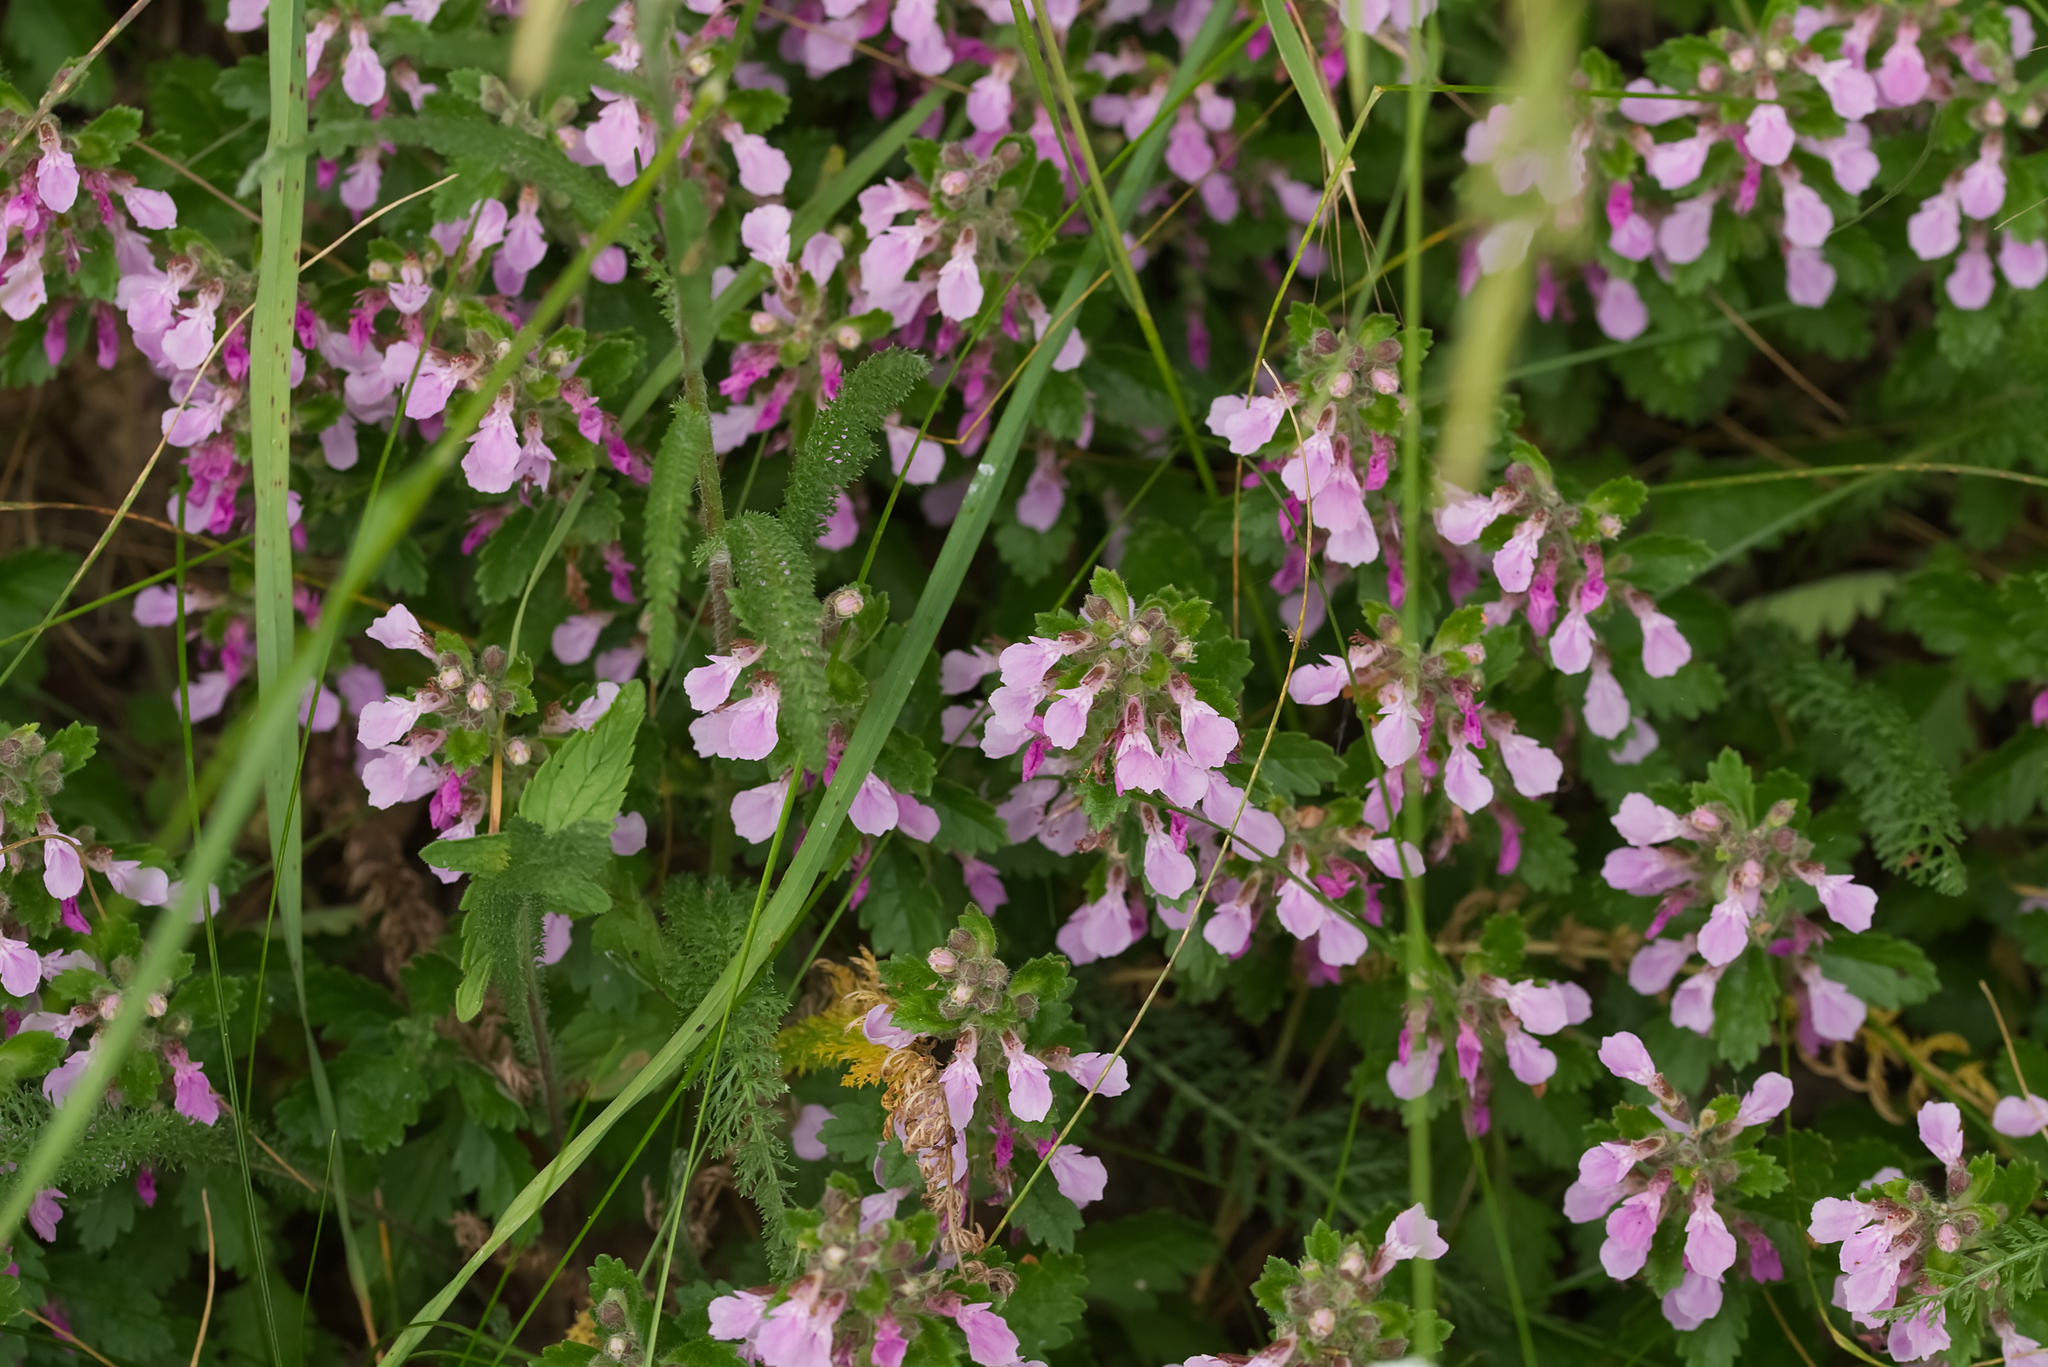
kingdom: Plantae
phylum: Tracheophyta
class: Magnoliopsida
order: Lamiales
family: Lamiaceae
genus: Teucrium
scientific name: Teucrium chamaedrys
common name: Wall germander
